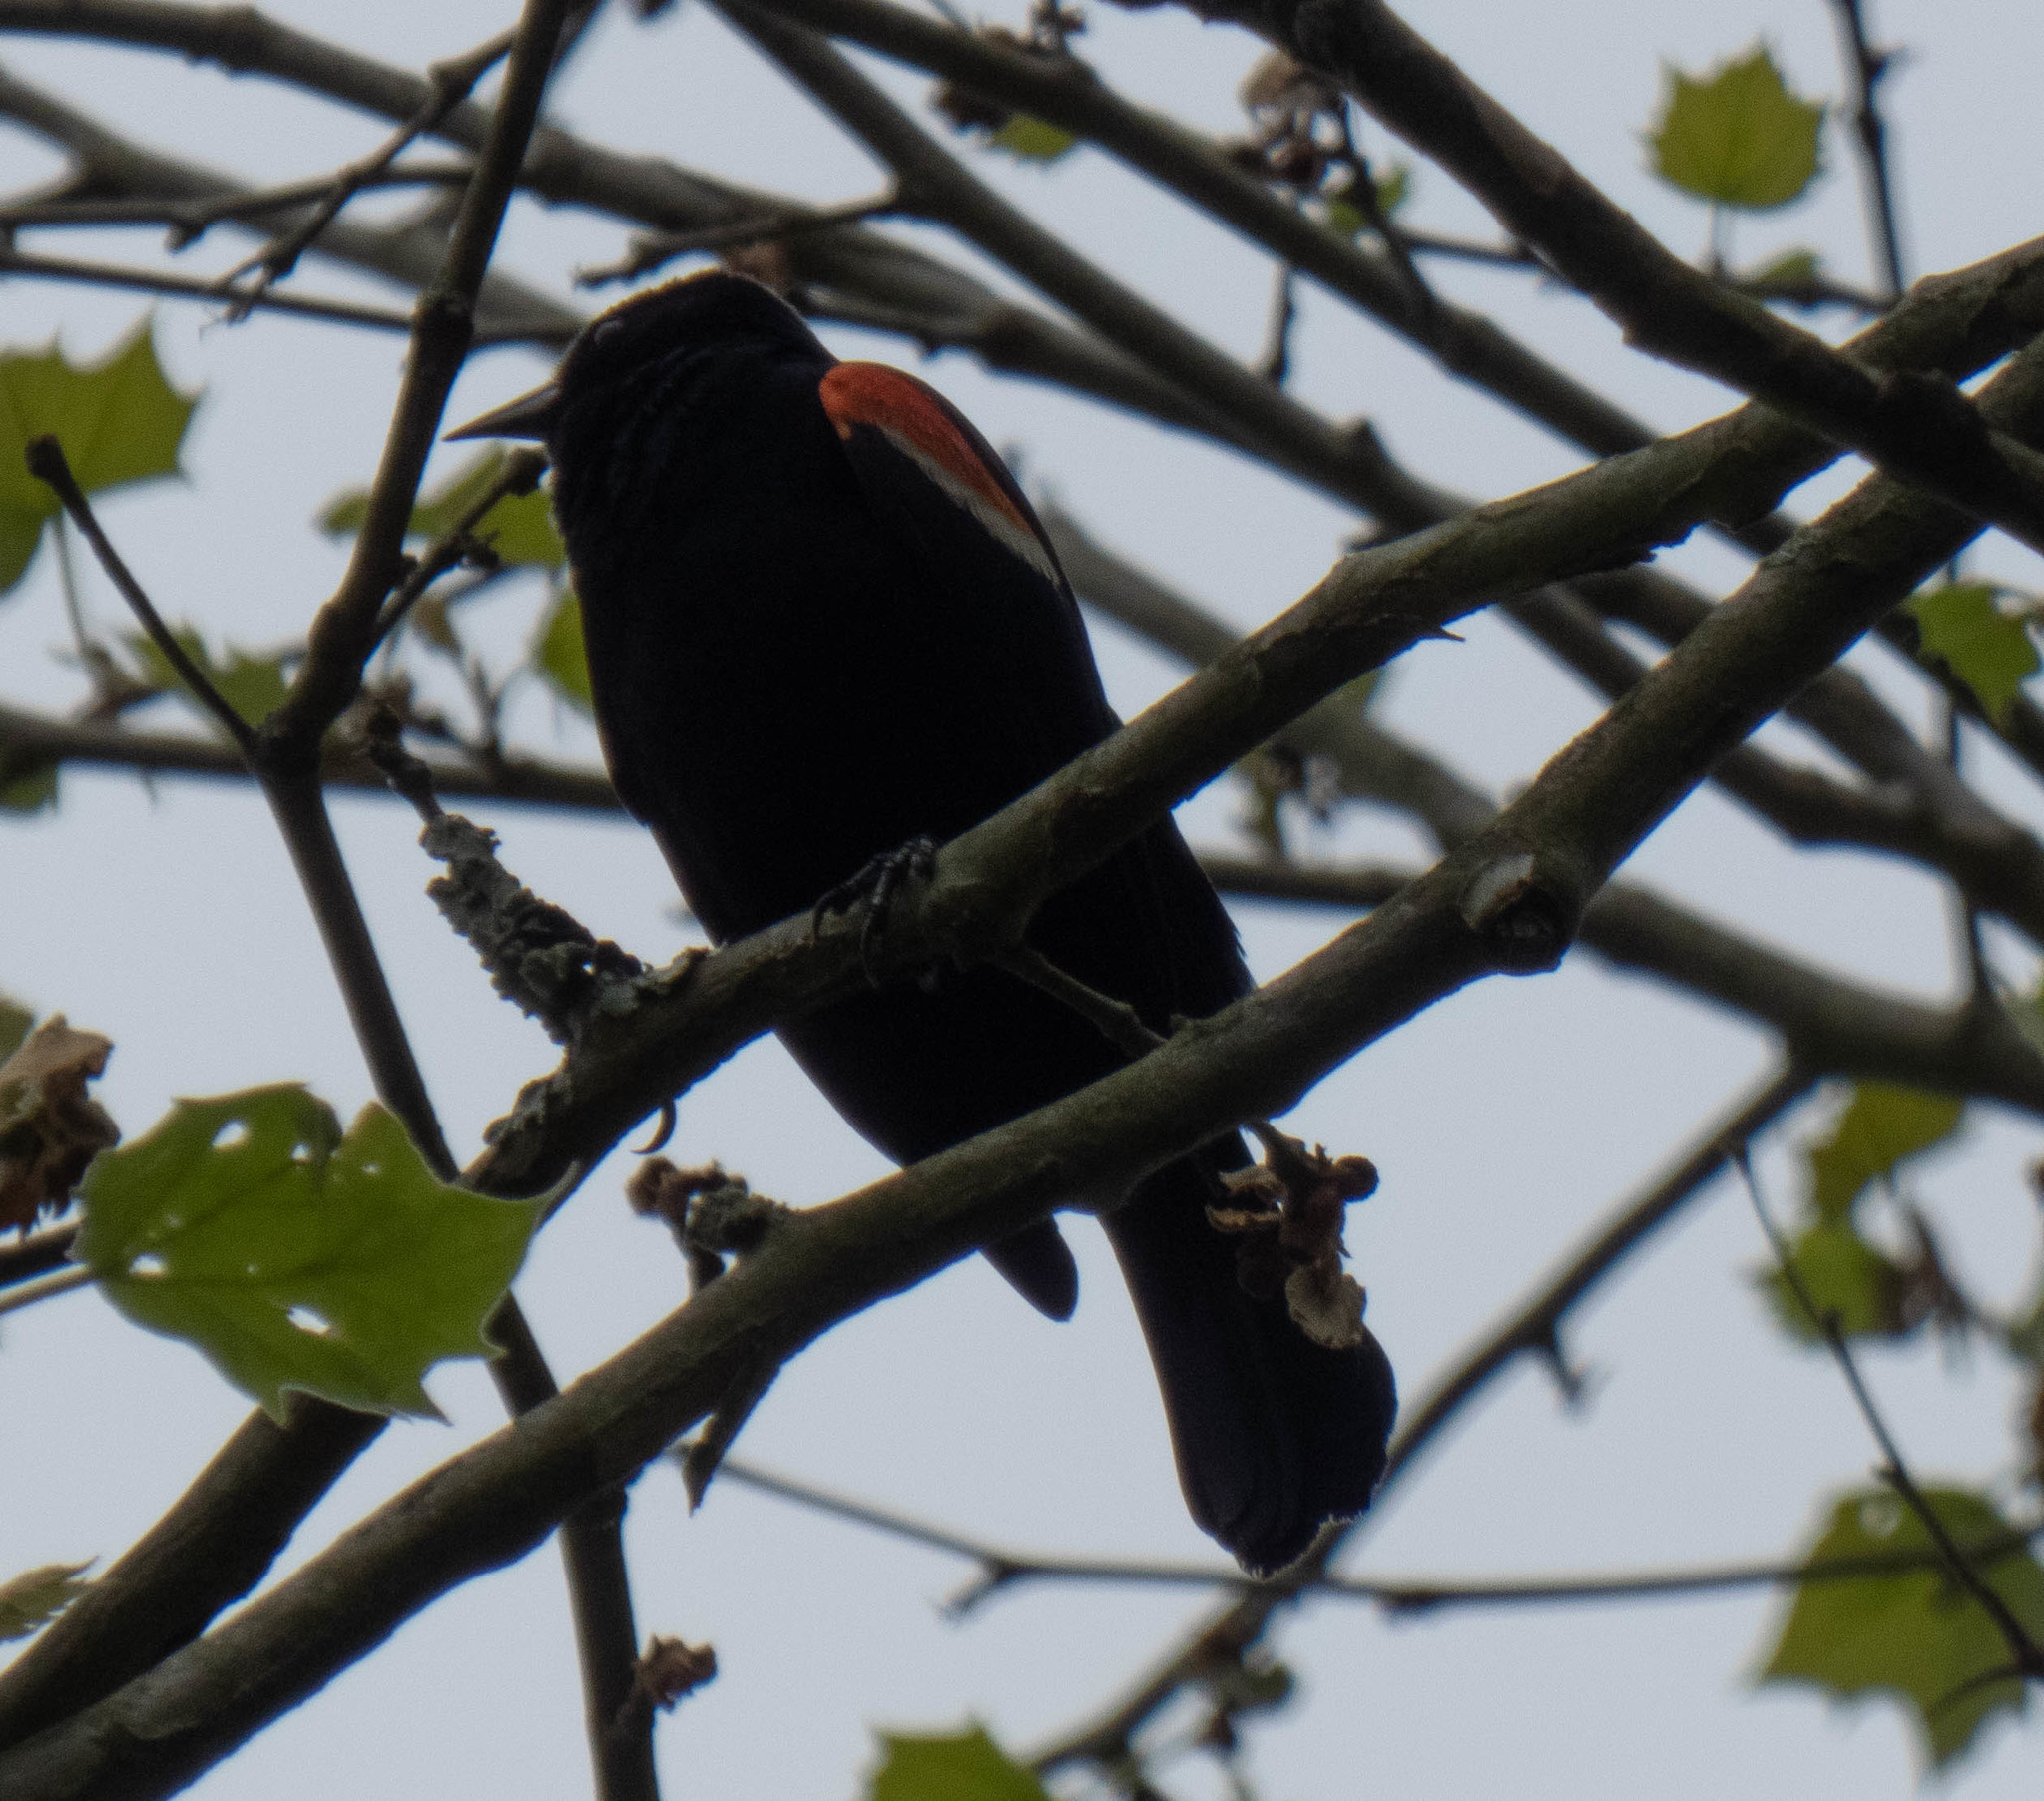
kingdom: Animalia
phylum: Chordata
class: Aves
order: Passeriformes
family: Icteridae
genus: Agelaius
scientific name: Agelaius phoeniceus
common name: Red-winged blackbird
